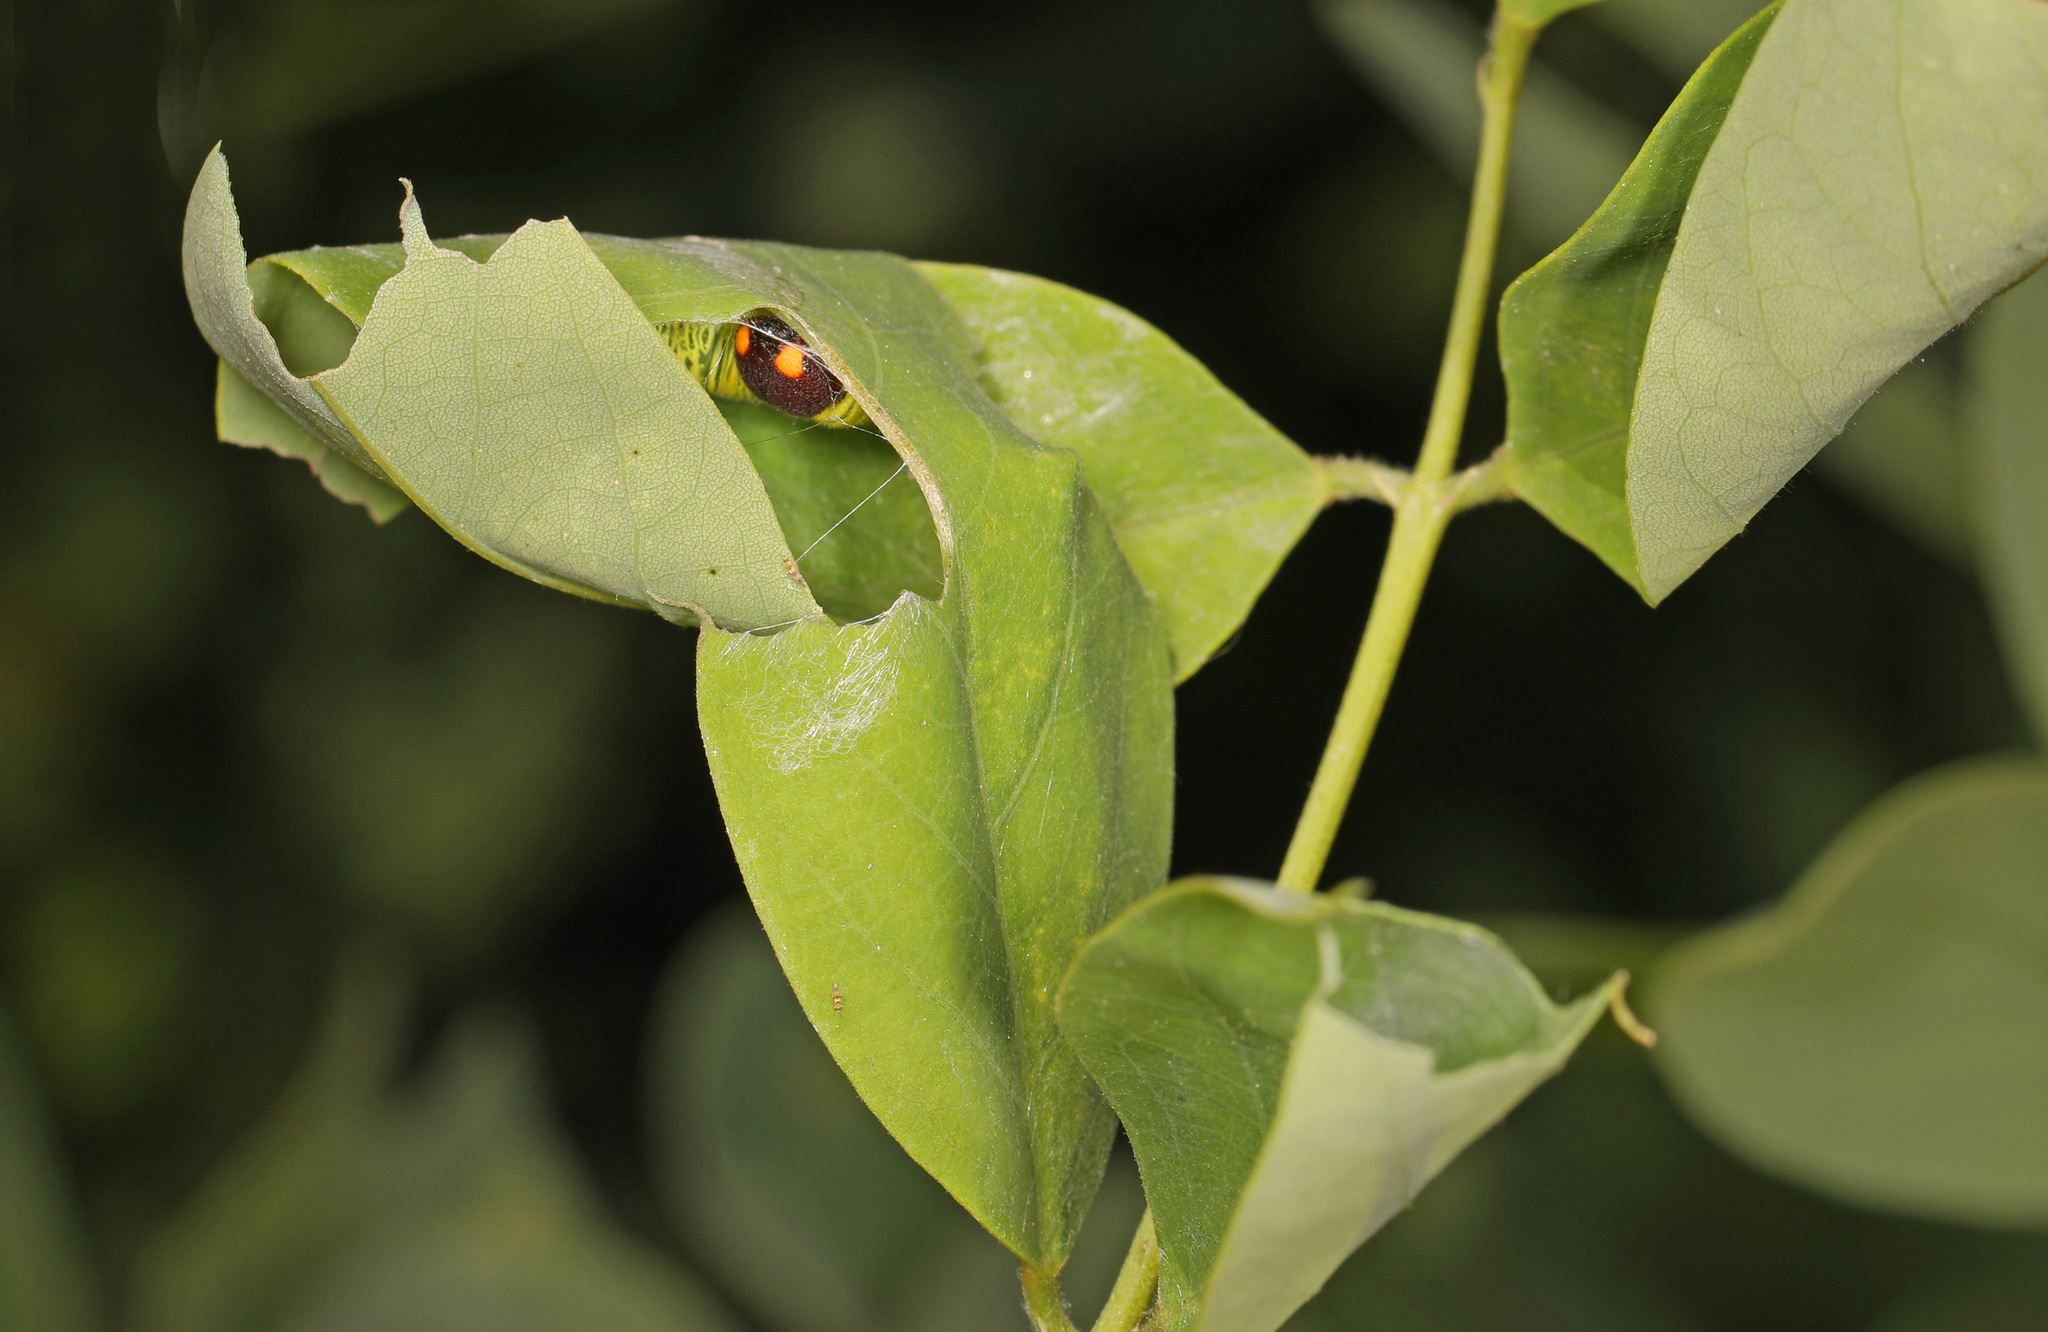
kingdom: Animalia
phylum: Arthropoda
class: Insecta
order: Lepidoptera
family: Hesperiidae
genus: Epargyreus
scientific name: Epargyreus clarus
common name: Silver-spotted skipper
